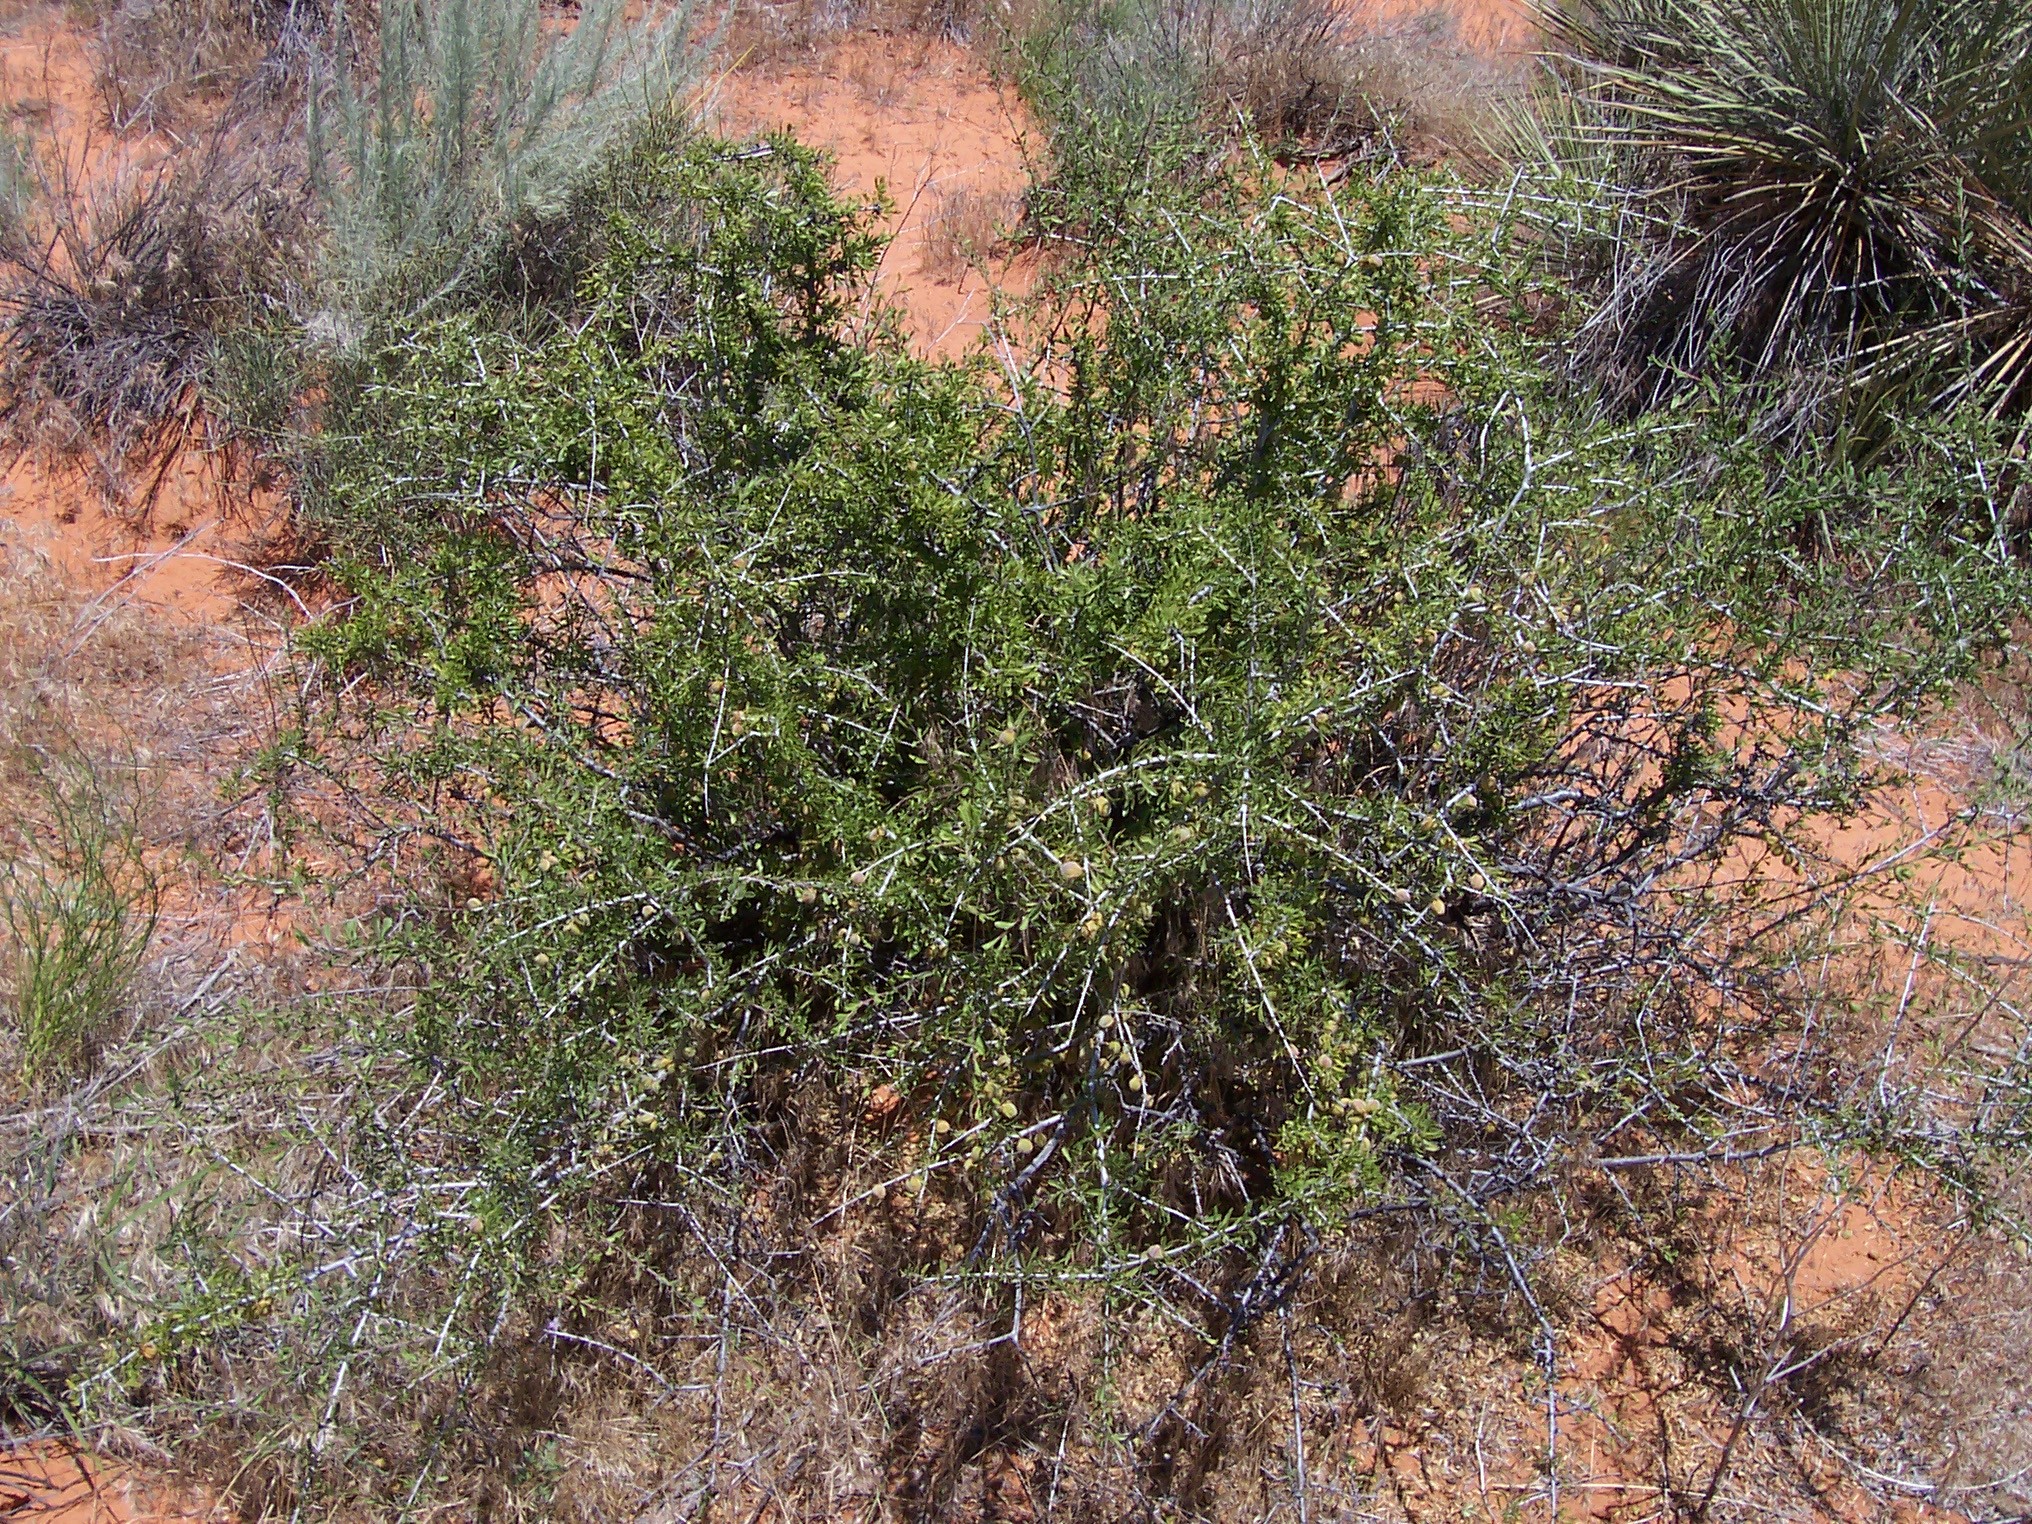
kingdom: Plantae
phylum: Tracheophyta
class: Magnoliopsida
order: Rosales
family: Rosaceae
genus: Prunus
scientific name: Prunus fasciculata
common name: Desert almond
